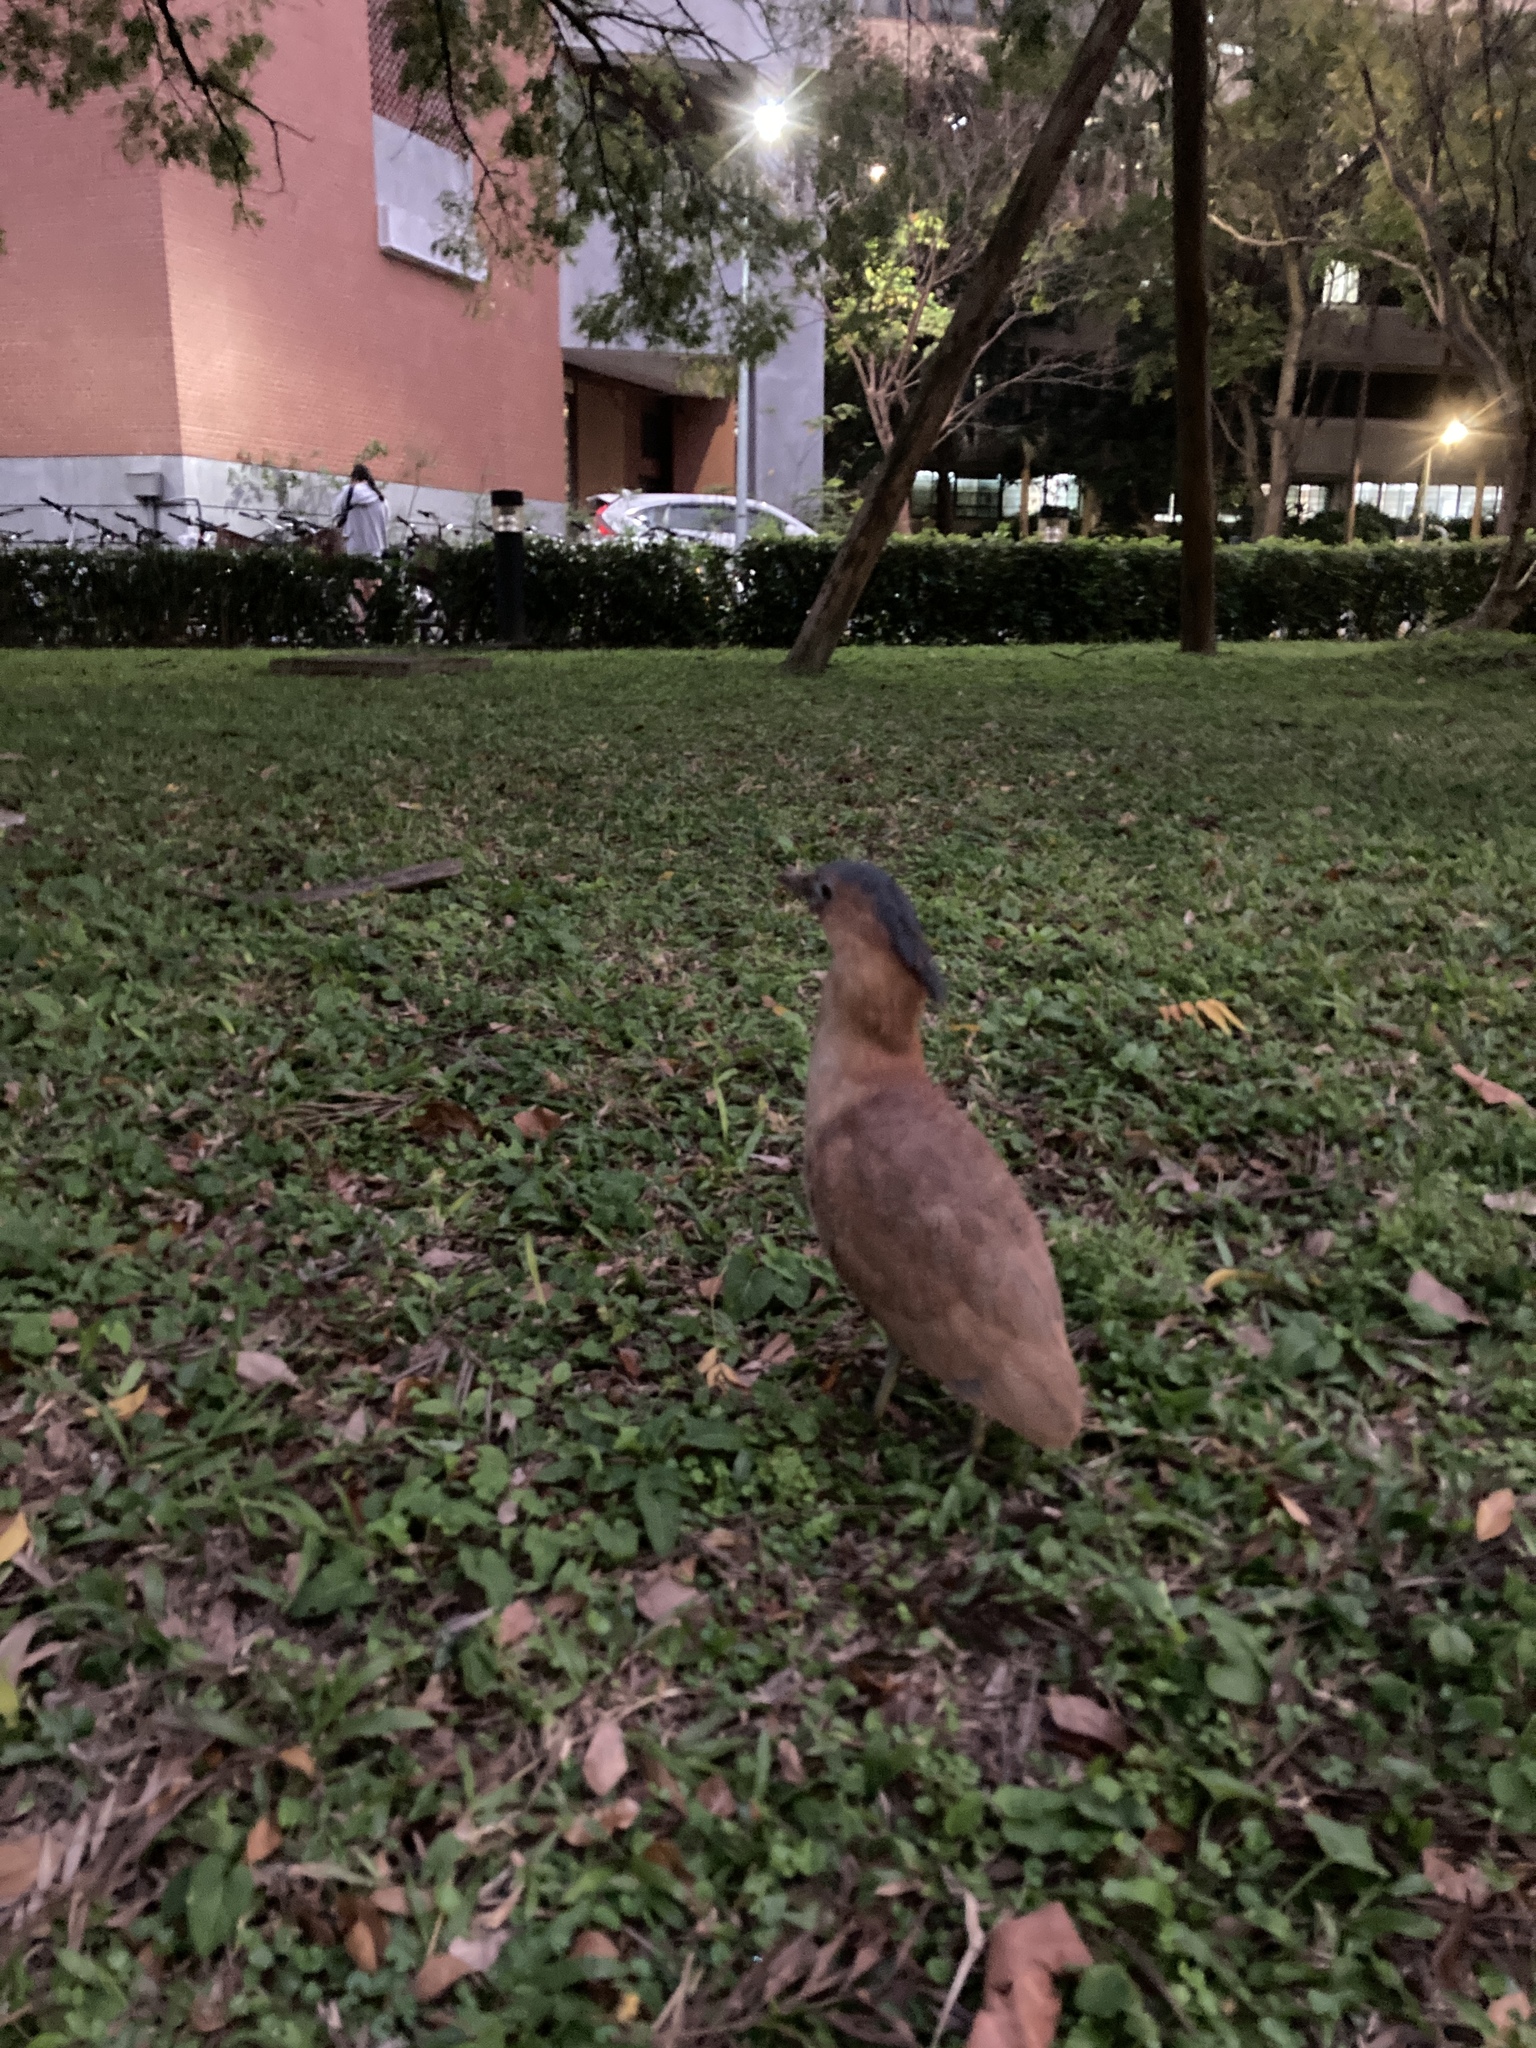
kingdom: Animalia
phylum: Chordata
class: Aves
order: Pelecaniformes
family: Ardeidae
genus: Gorsachius
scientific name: Gorsachius melanolophus
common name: Malayan night heron
